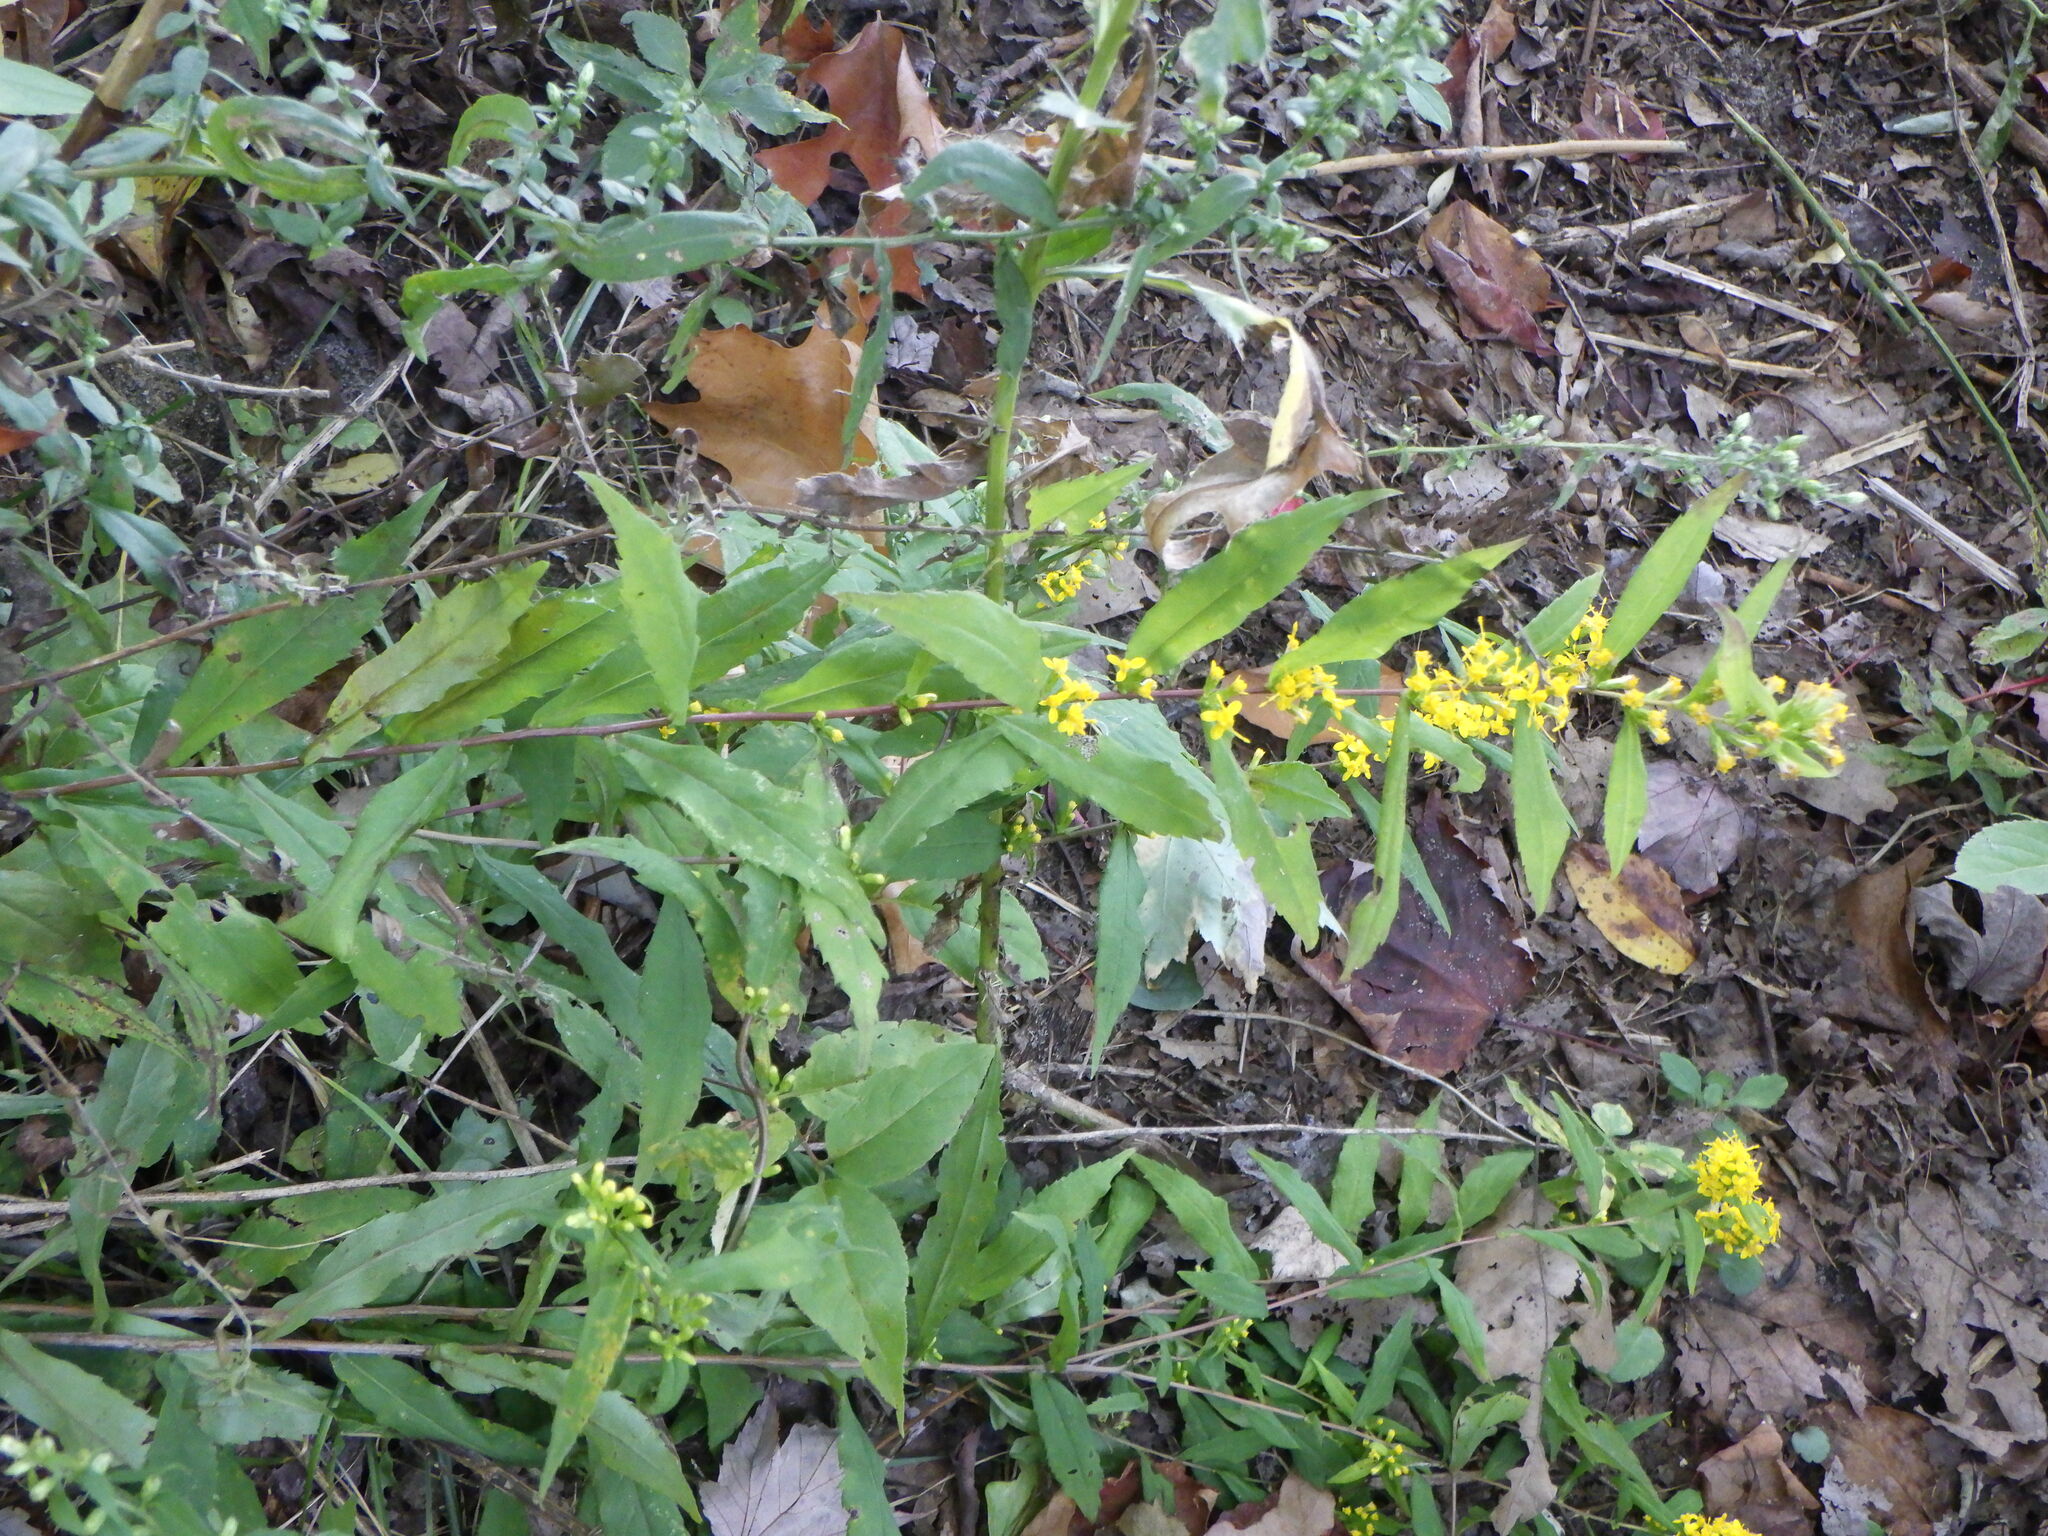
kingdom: Plantae
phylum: Tracheophyta
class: Magnoliopsida
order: Asterales
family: Asteraceae
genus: Solidago
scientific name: Solidago caesia
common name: Woodland goldenrod
